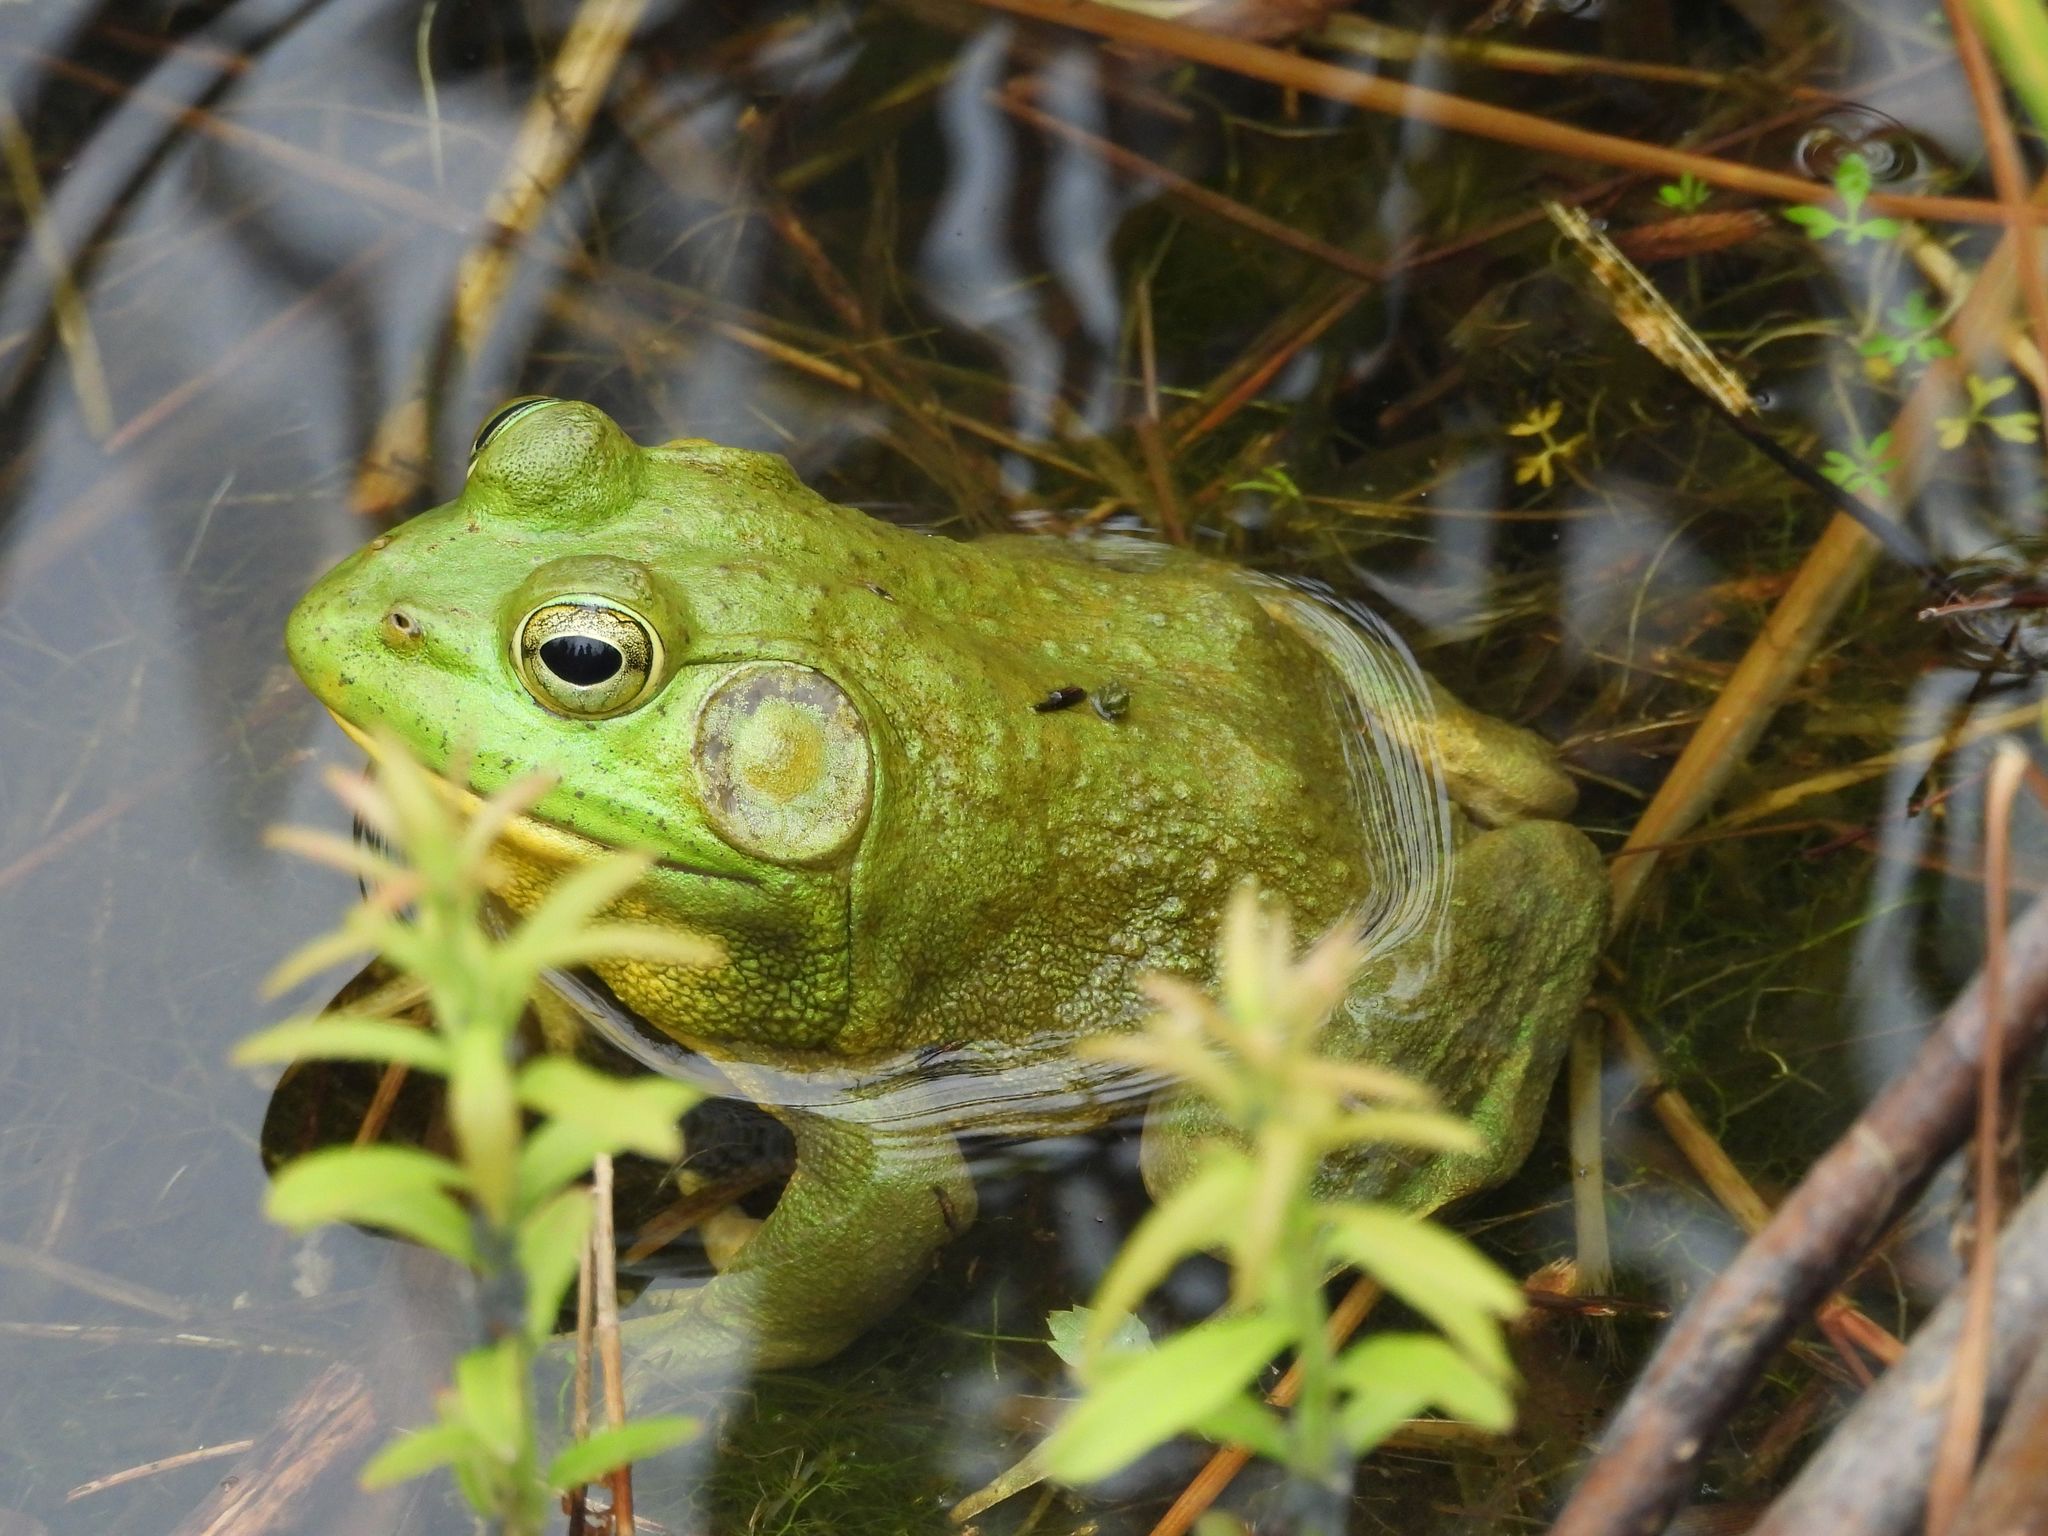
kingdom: Animalia
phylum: Chordata
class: Amphibia
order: Anura
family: Ranidae
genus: Lithobates
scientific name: Lithobates catesbeianus
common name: American bullfrog
